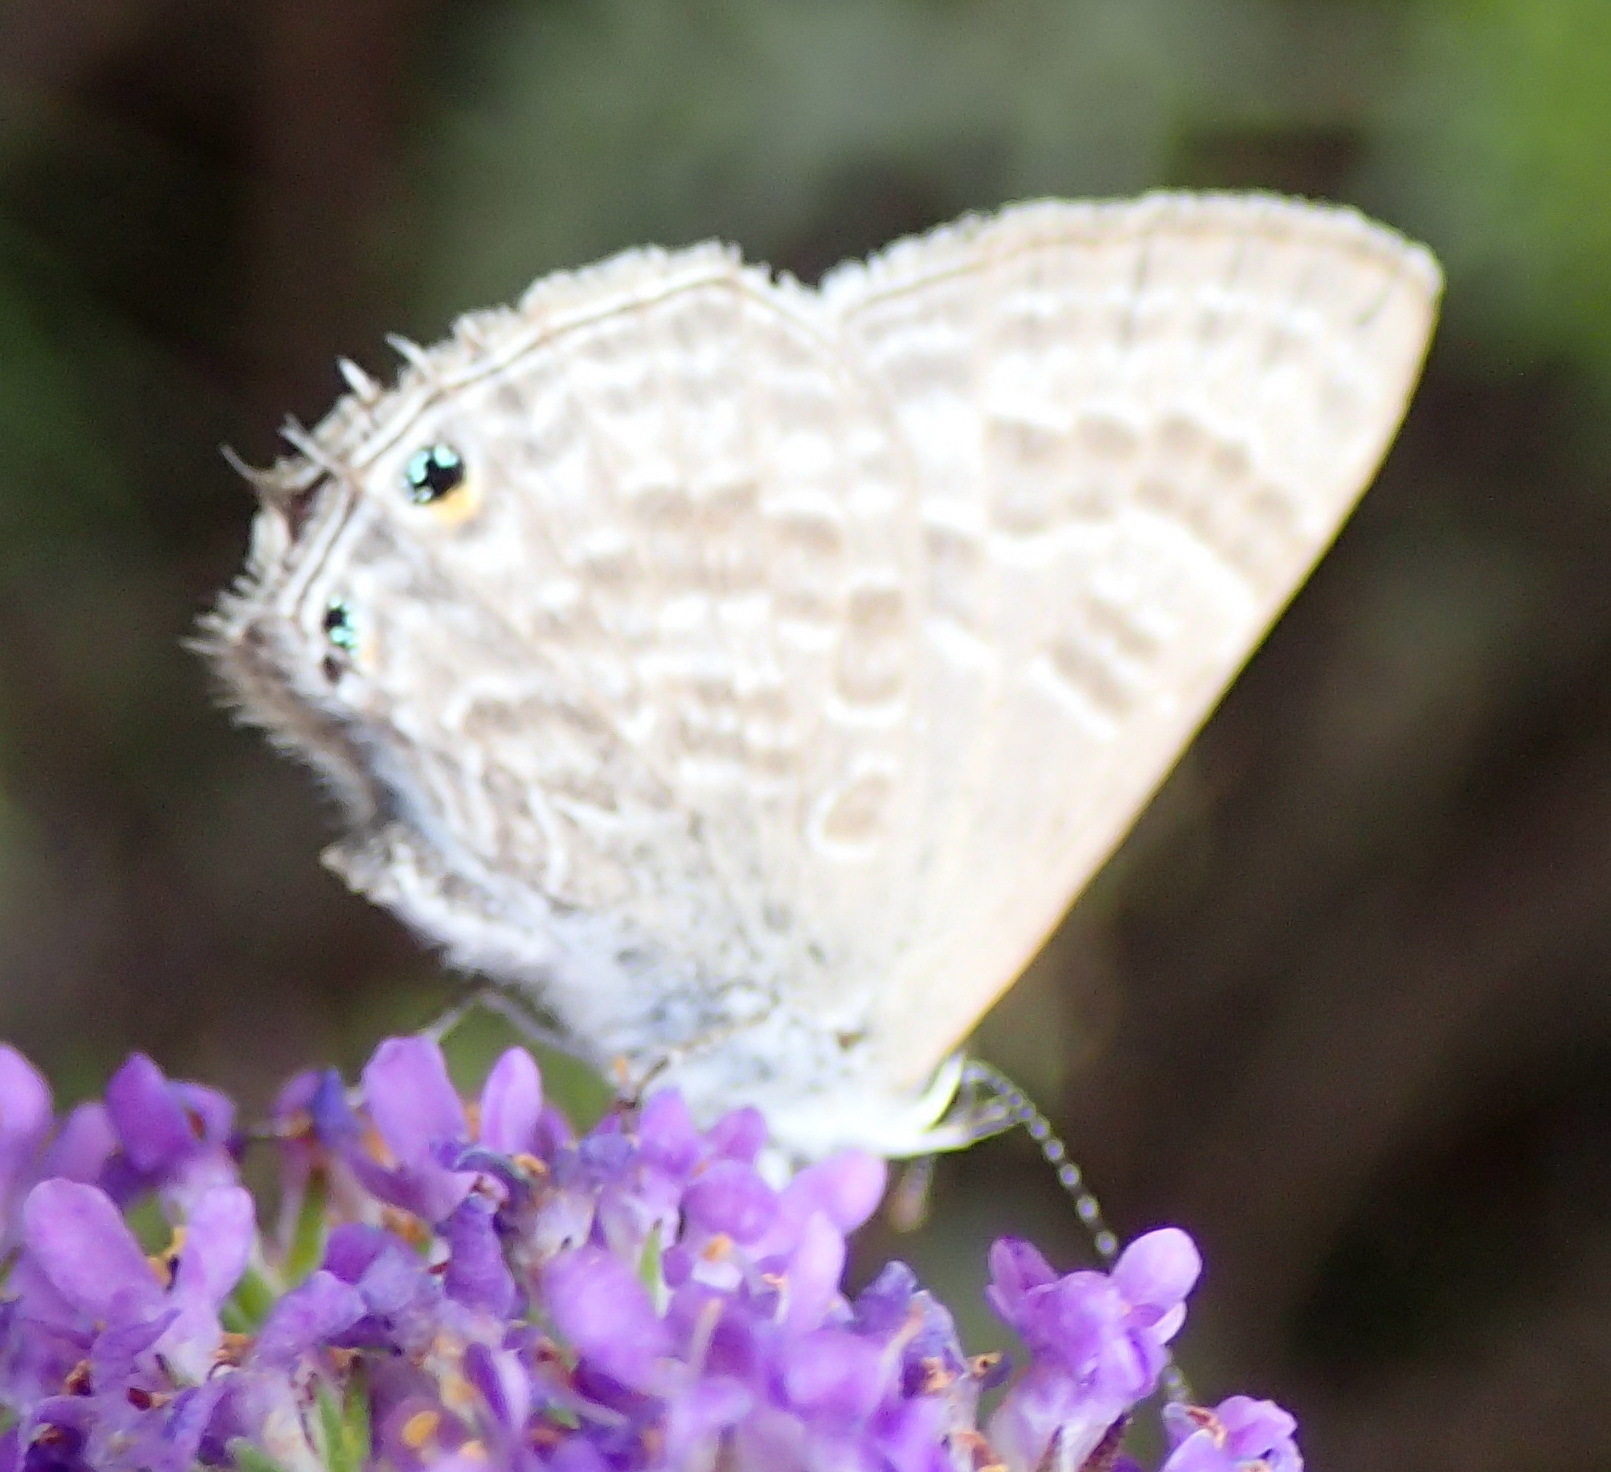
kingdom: Animalia
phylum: Arthropoda
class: Insecta
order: Lepidoptera
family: Lycaenidae
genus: Anthene
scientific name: Anthene definita
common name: Common ciliate blue
